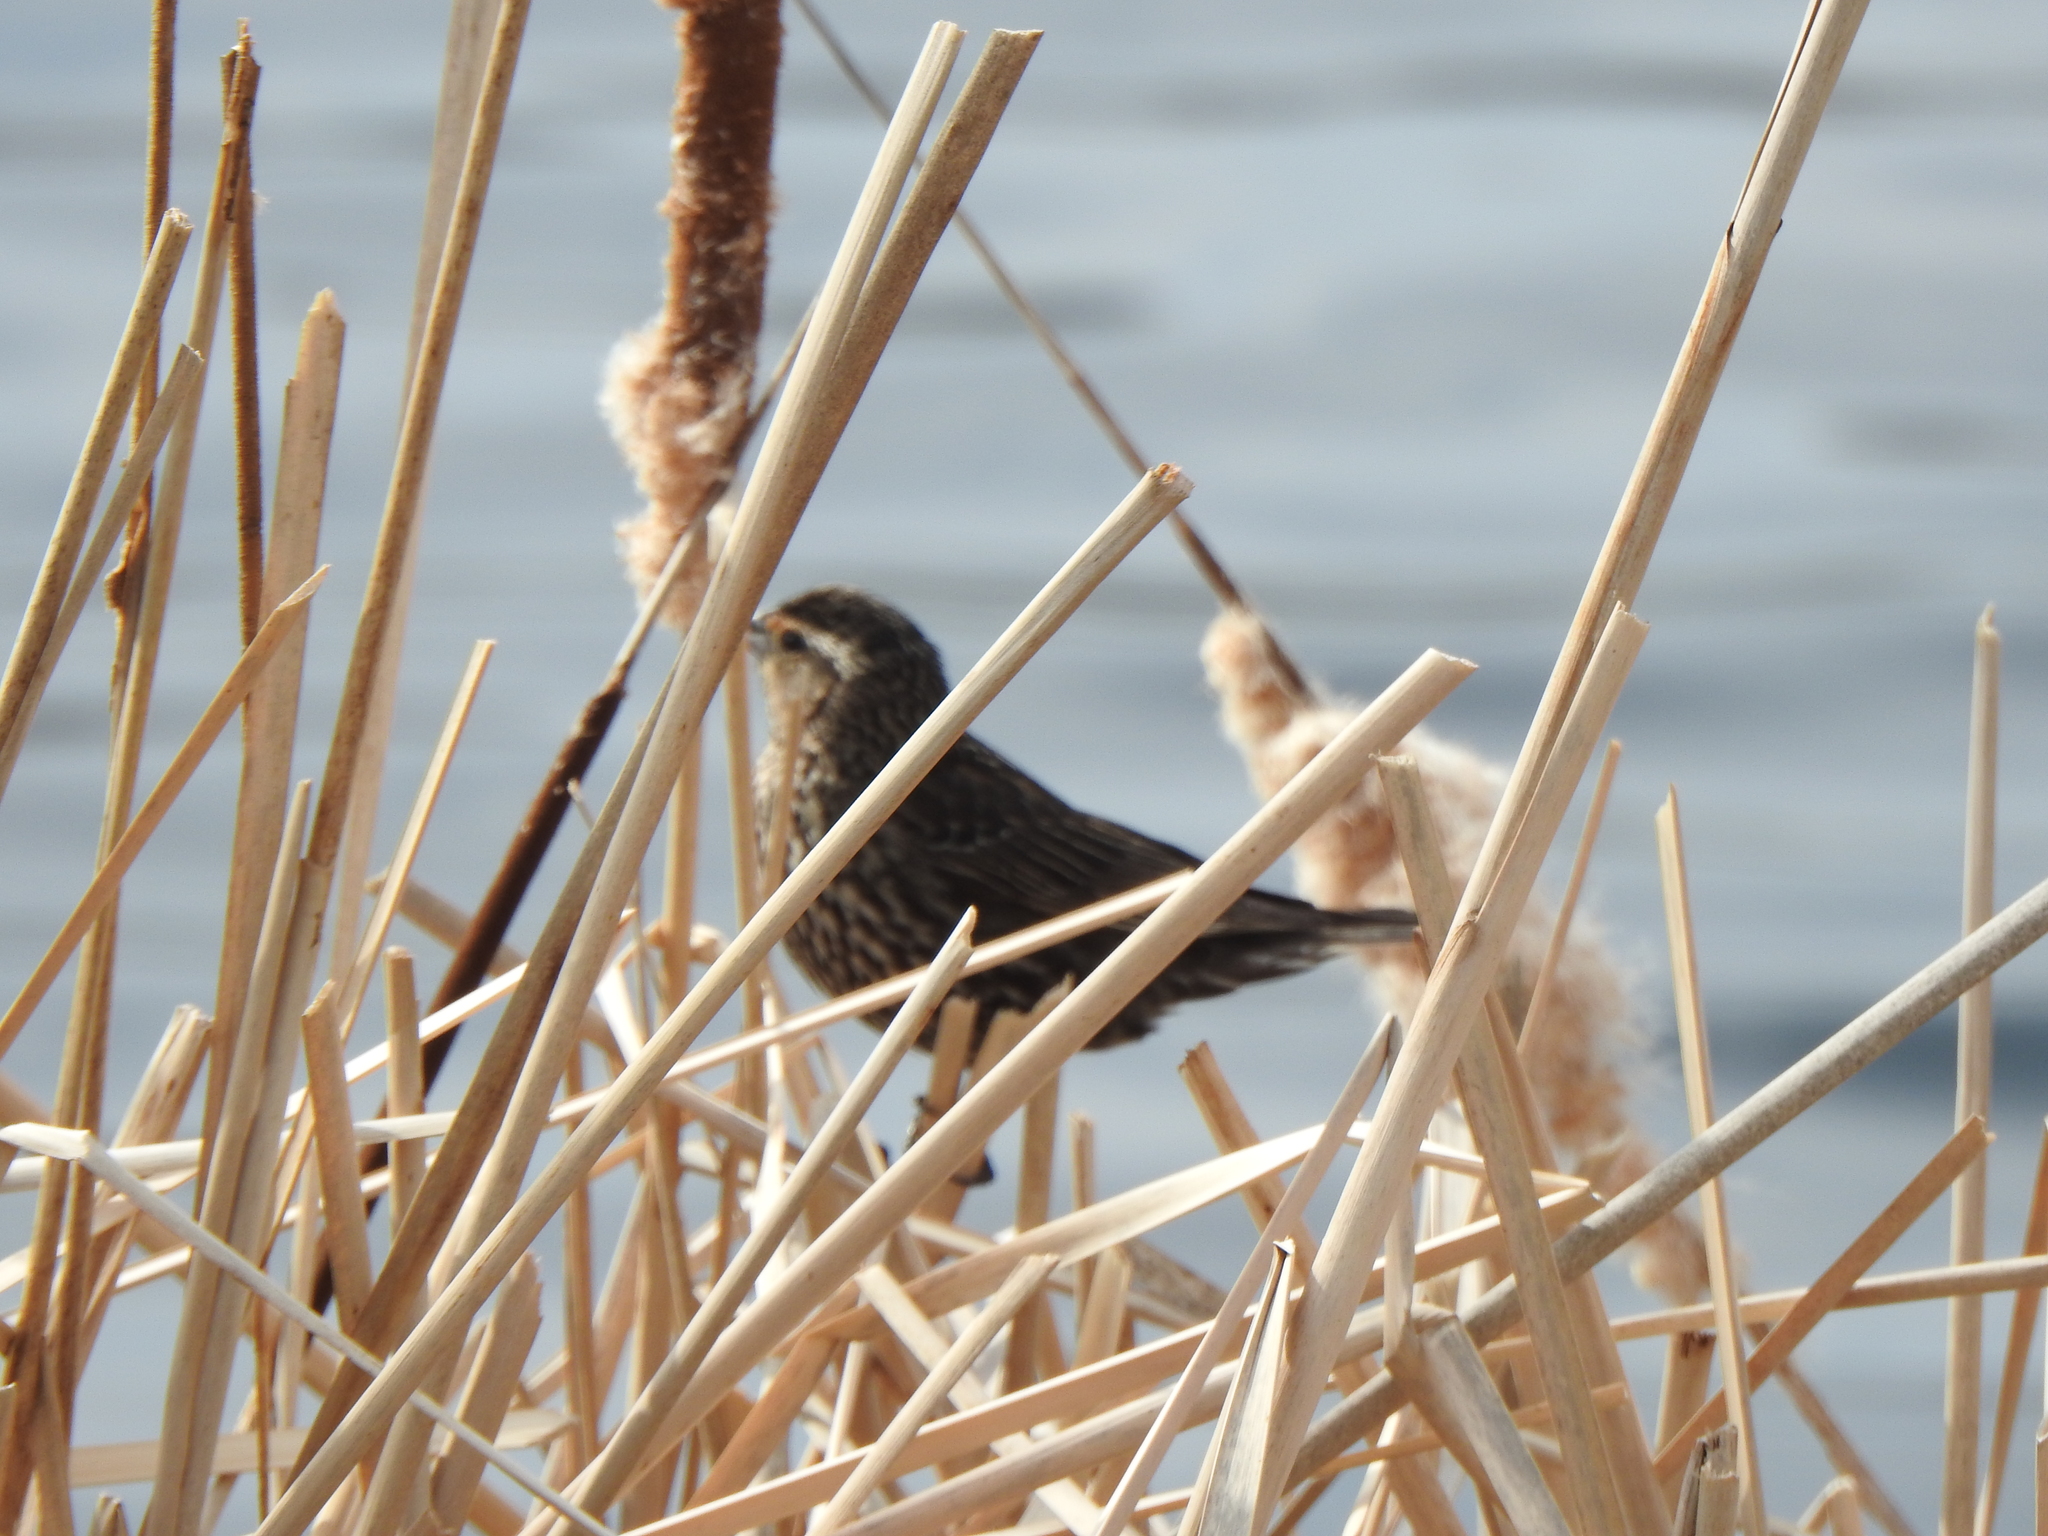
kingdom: Animalia
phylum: Chordata
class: Aves
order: Passeriformes
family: Icteridae
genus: Agelaius
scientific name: Agelaius phoeniceus
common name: Red-winged blackbird
